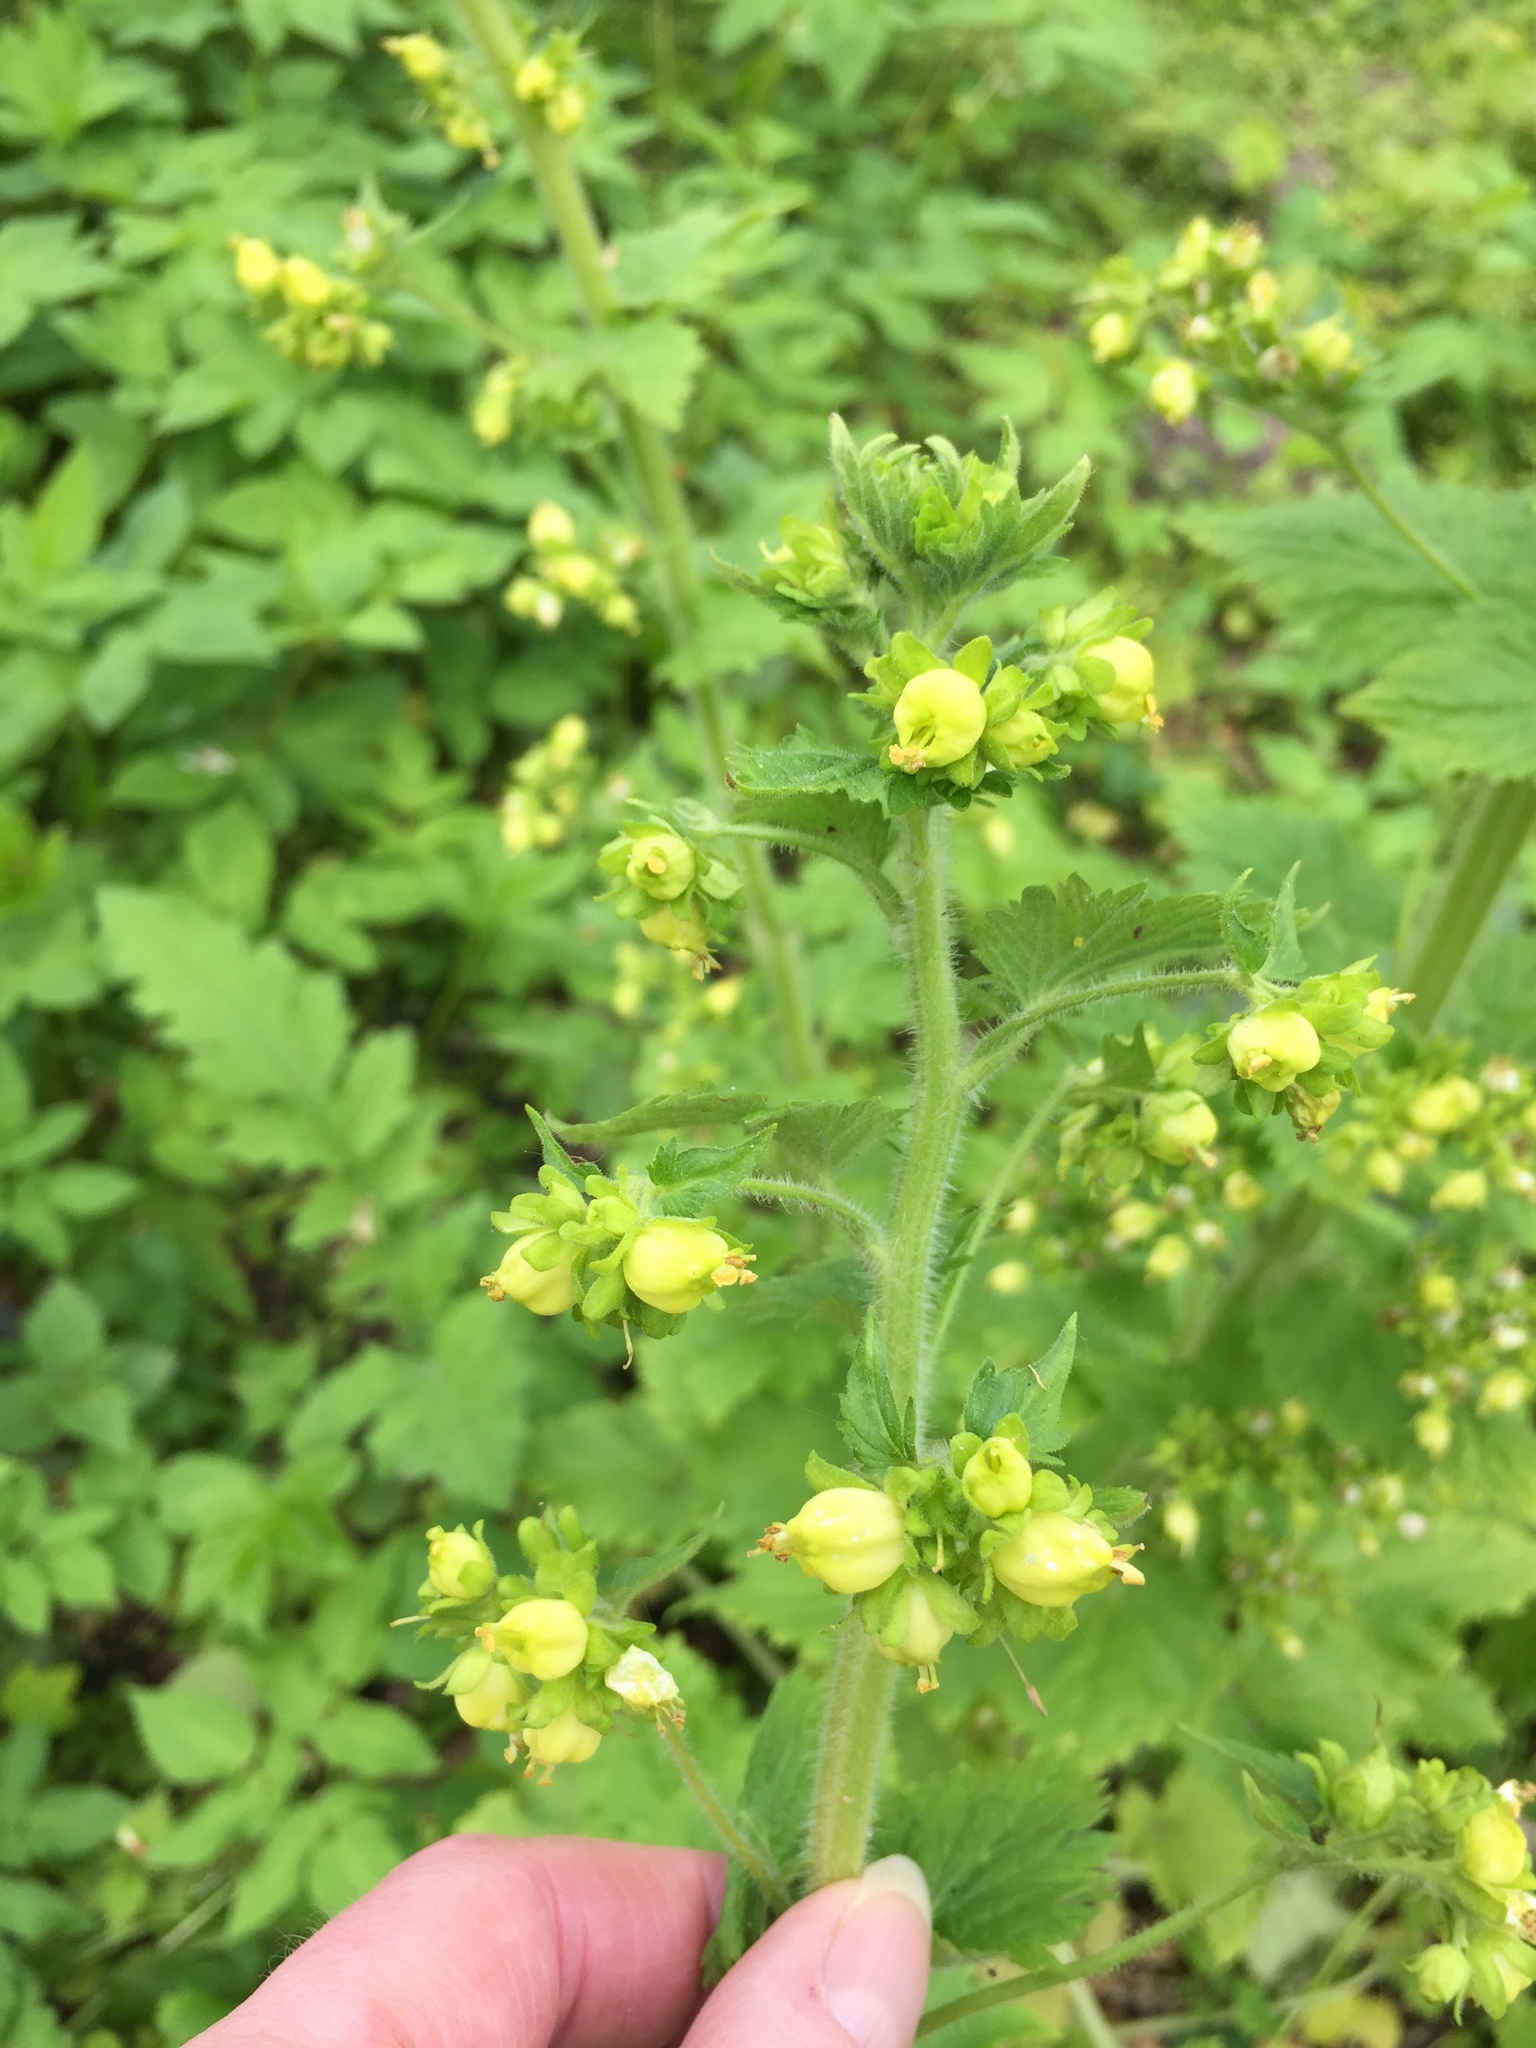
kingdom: Plantae
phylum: Tracheophyta
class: Magnoliopsida
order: Lamiales
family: Scrophulariaceae
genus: Scrophularia
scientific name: Scrophularia vernalis
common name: Yellow figwort
